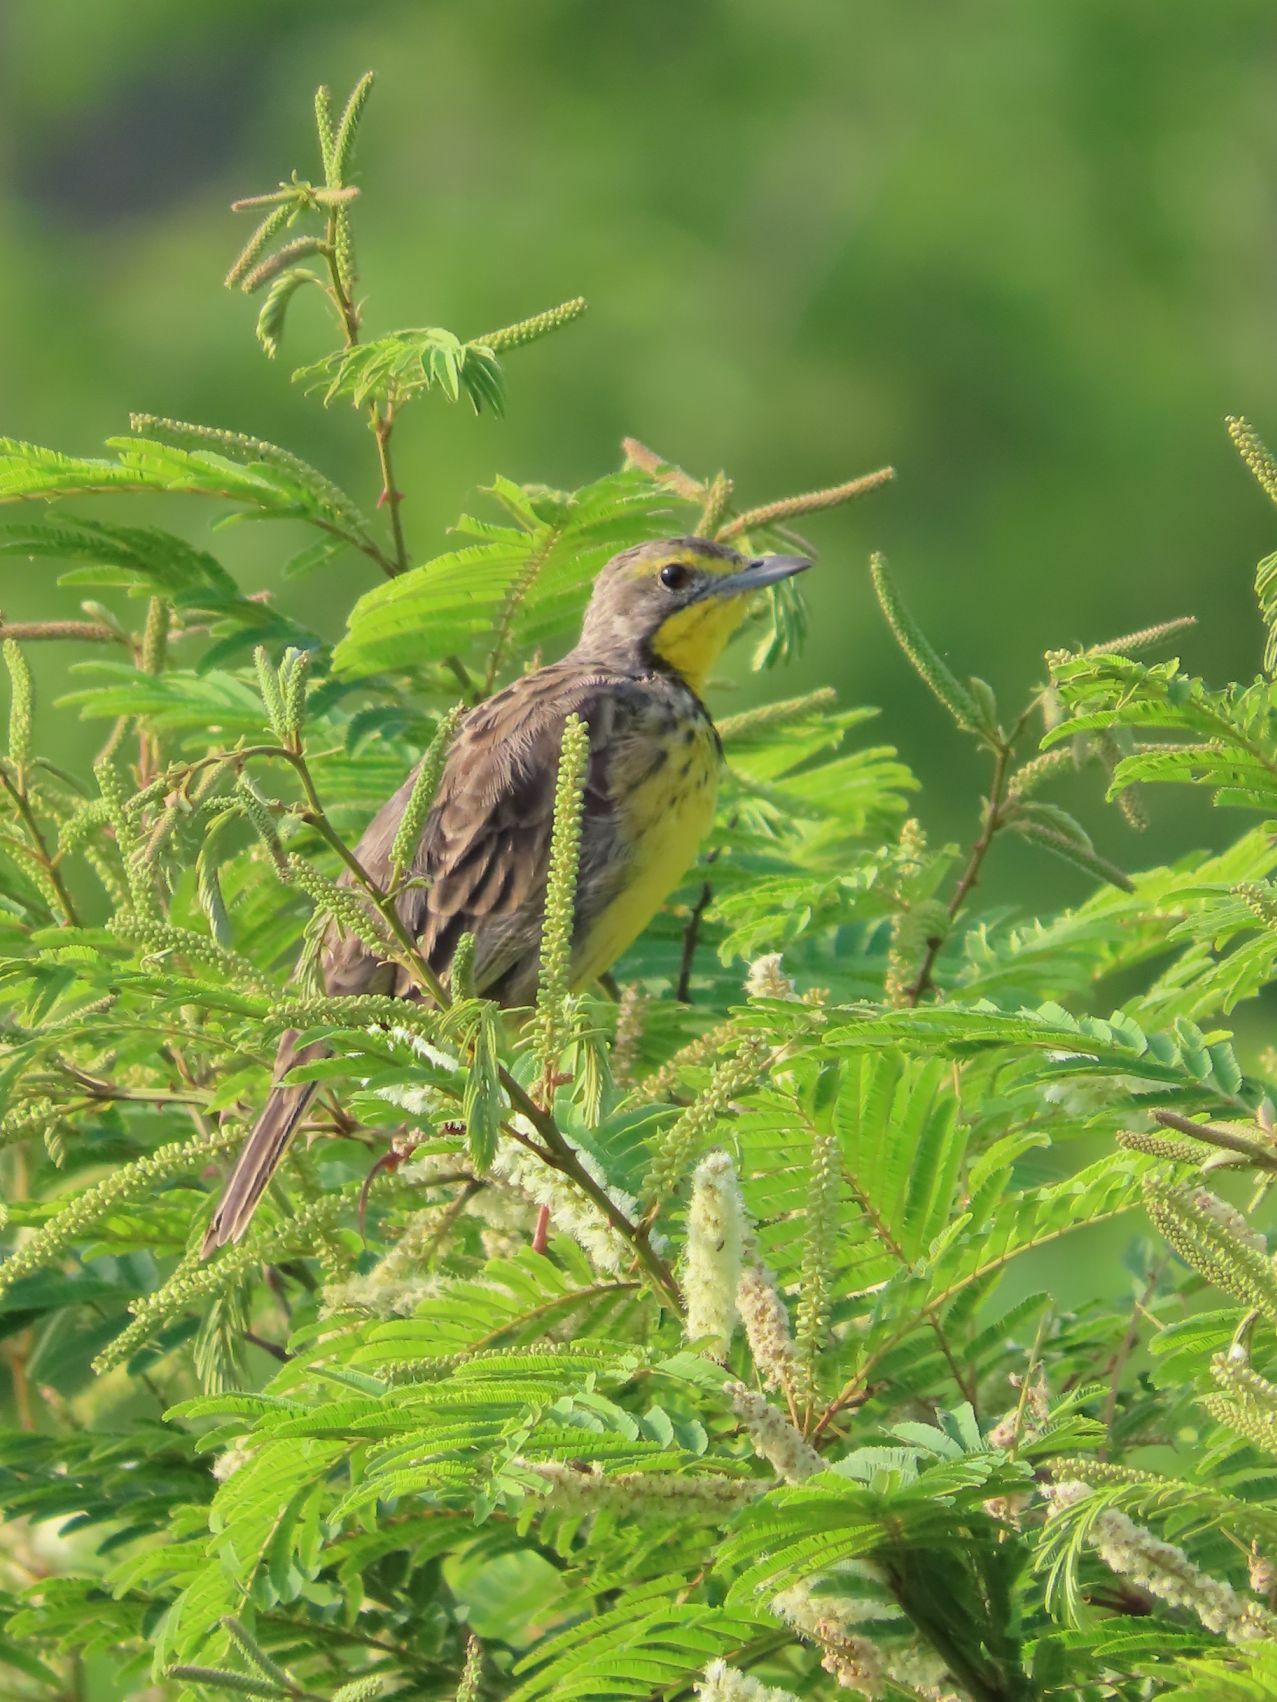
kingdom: Animalia
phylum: Chordata
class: Aves
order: Passeriformes
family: Motacillidae
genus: Macronyx
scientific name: Macronyx croceus
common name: Yellow-throated longclaw
